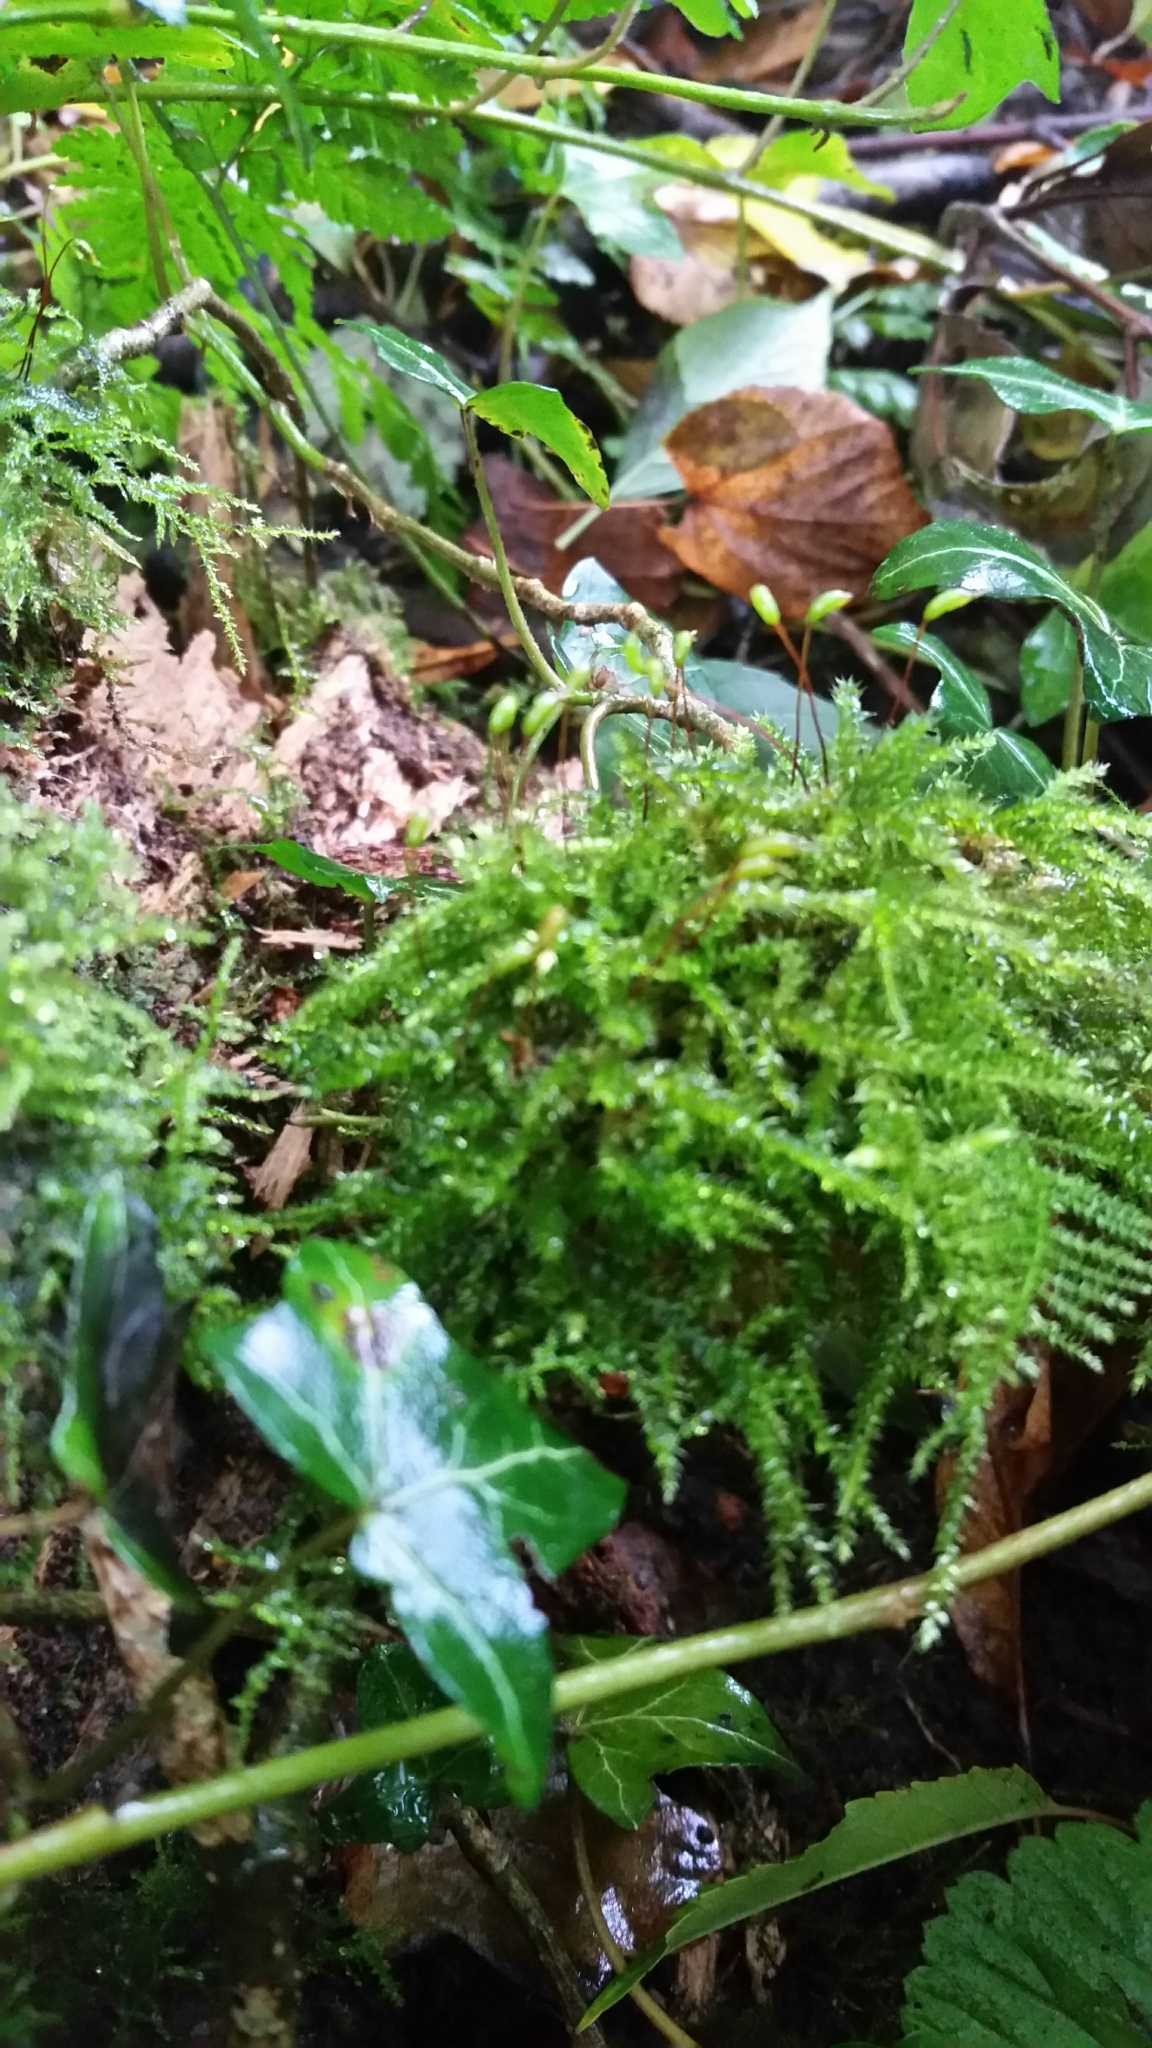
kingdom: Plantae
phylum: Bryophyta
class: Bryopsida
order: Hypnales
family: Brachytheciaceae
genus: Kindbergia
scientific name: Kindbergia praelonga
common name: Slender beaked moss
